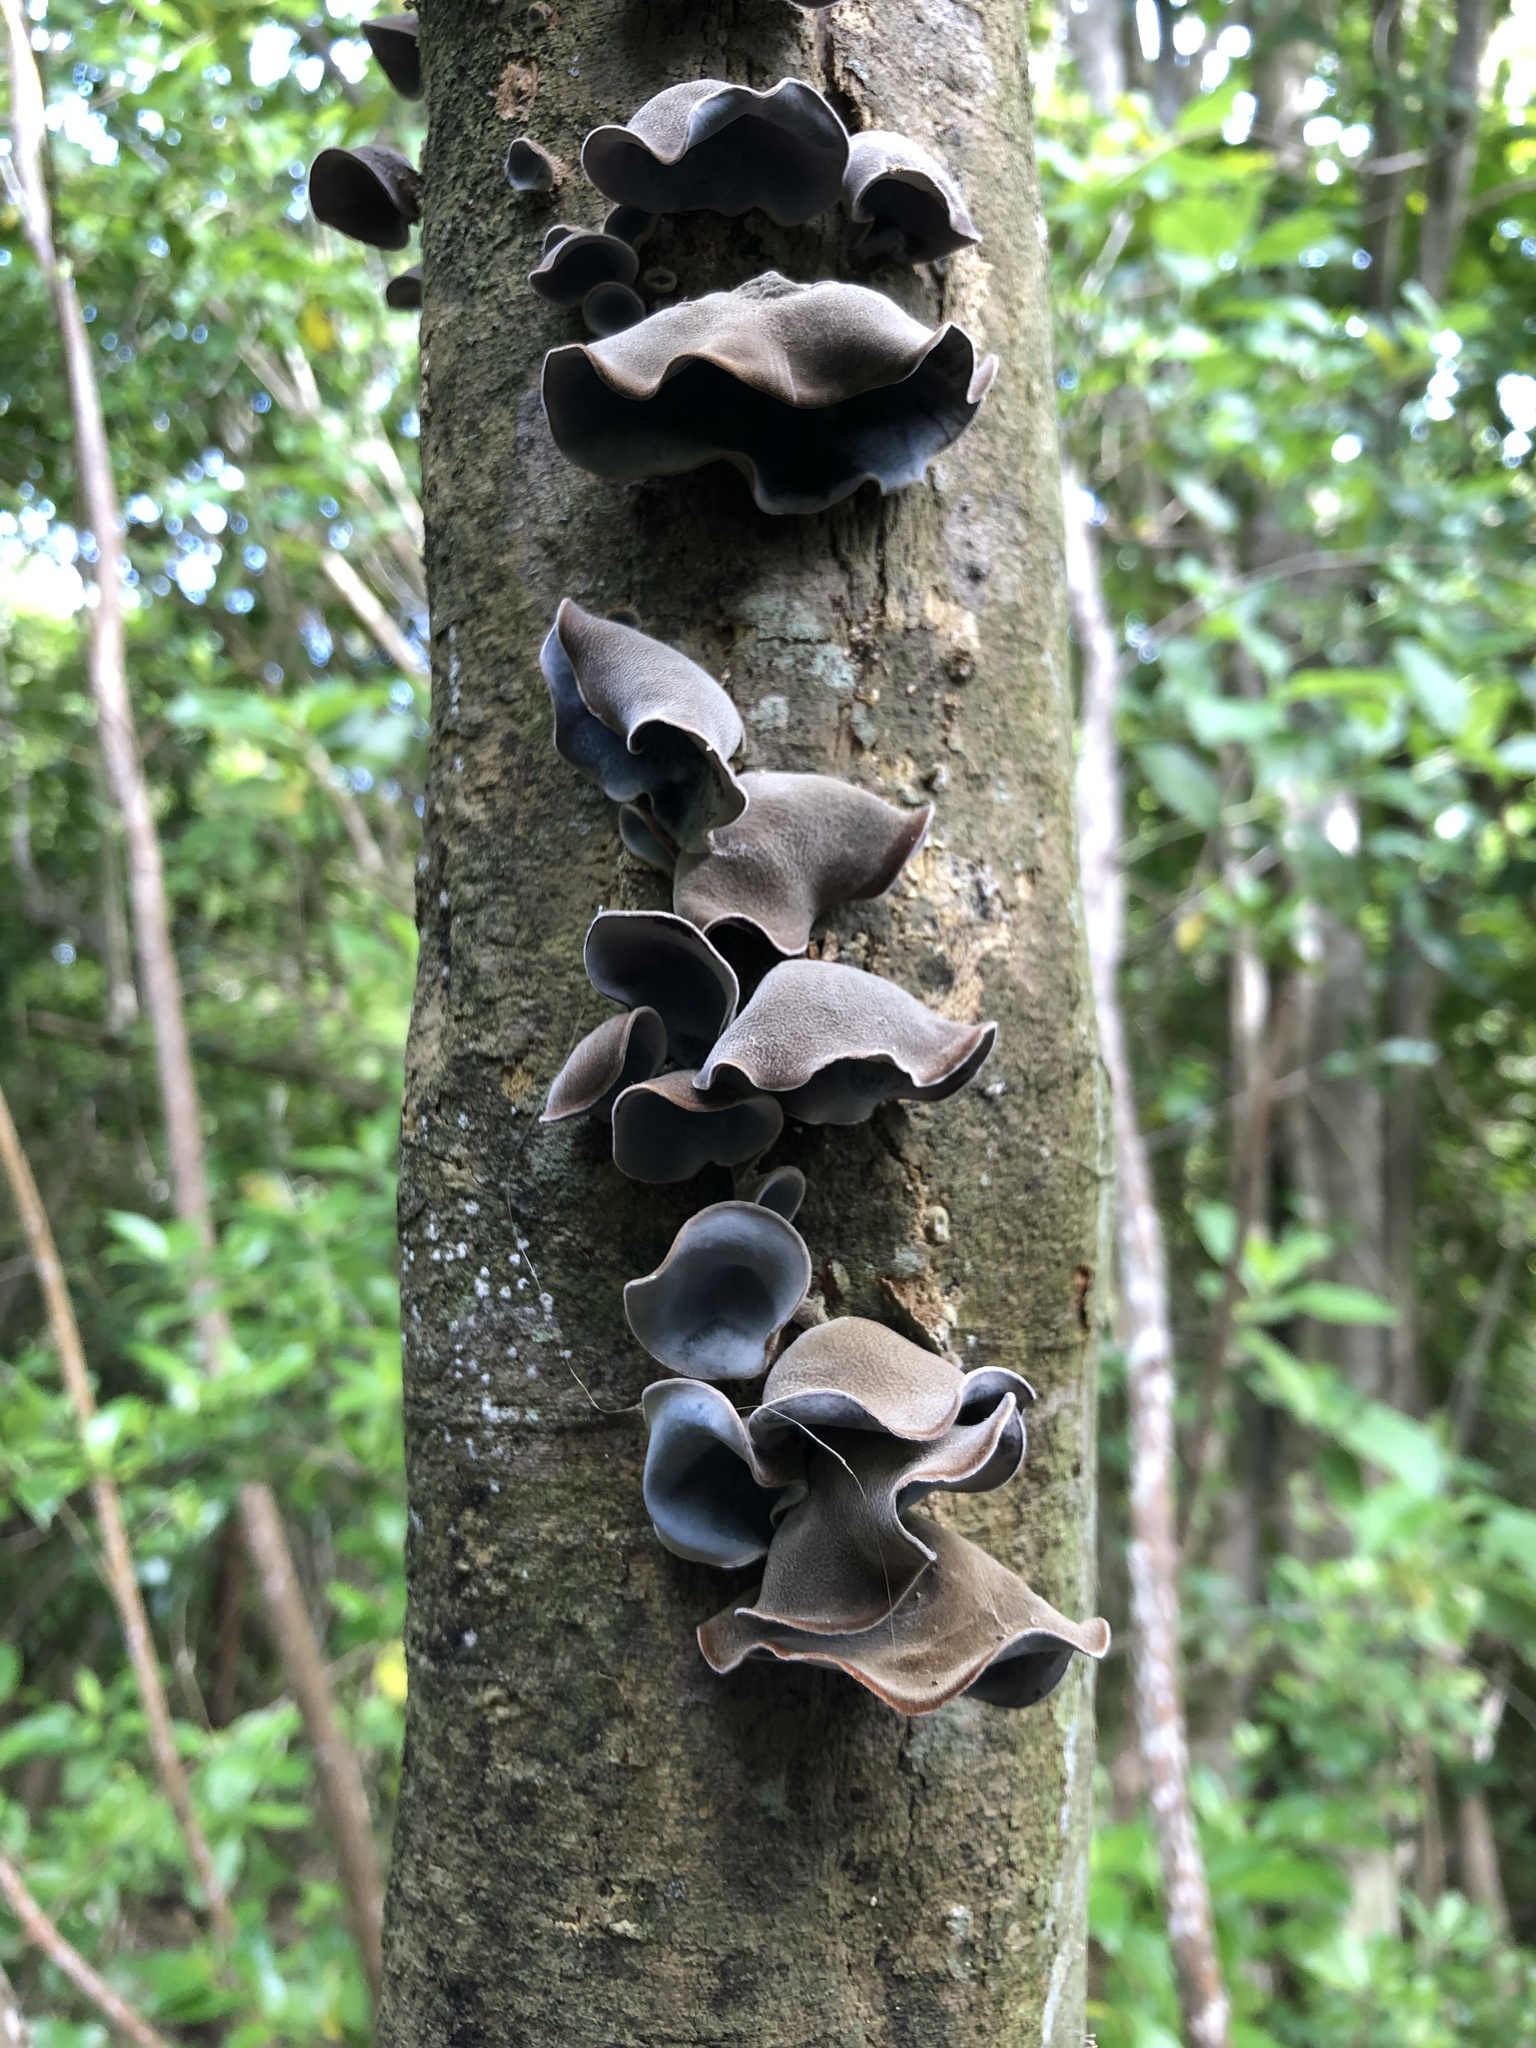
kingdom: Fungi
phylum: Basidiomycota
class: Agaricomycetes
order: Auriculariales
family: Auriculariaceae
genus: Auricularia
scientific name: Auricularia cornea
